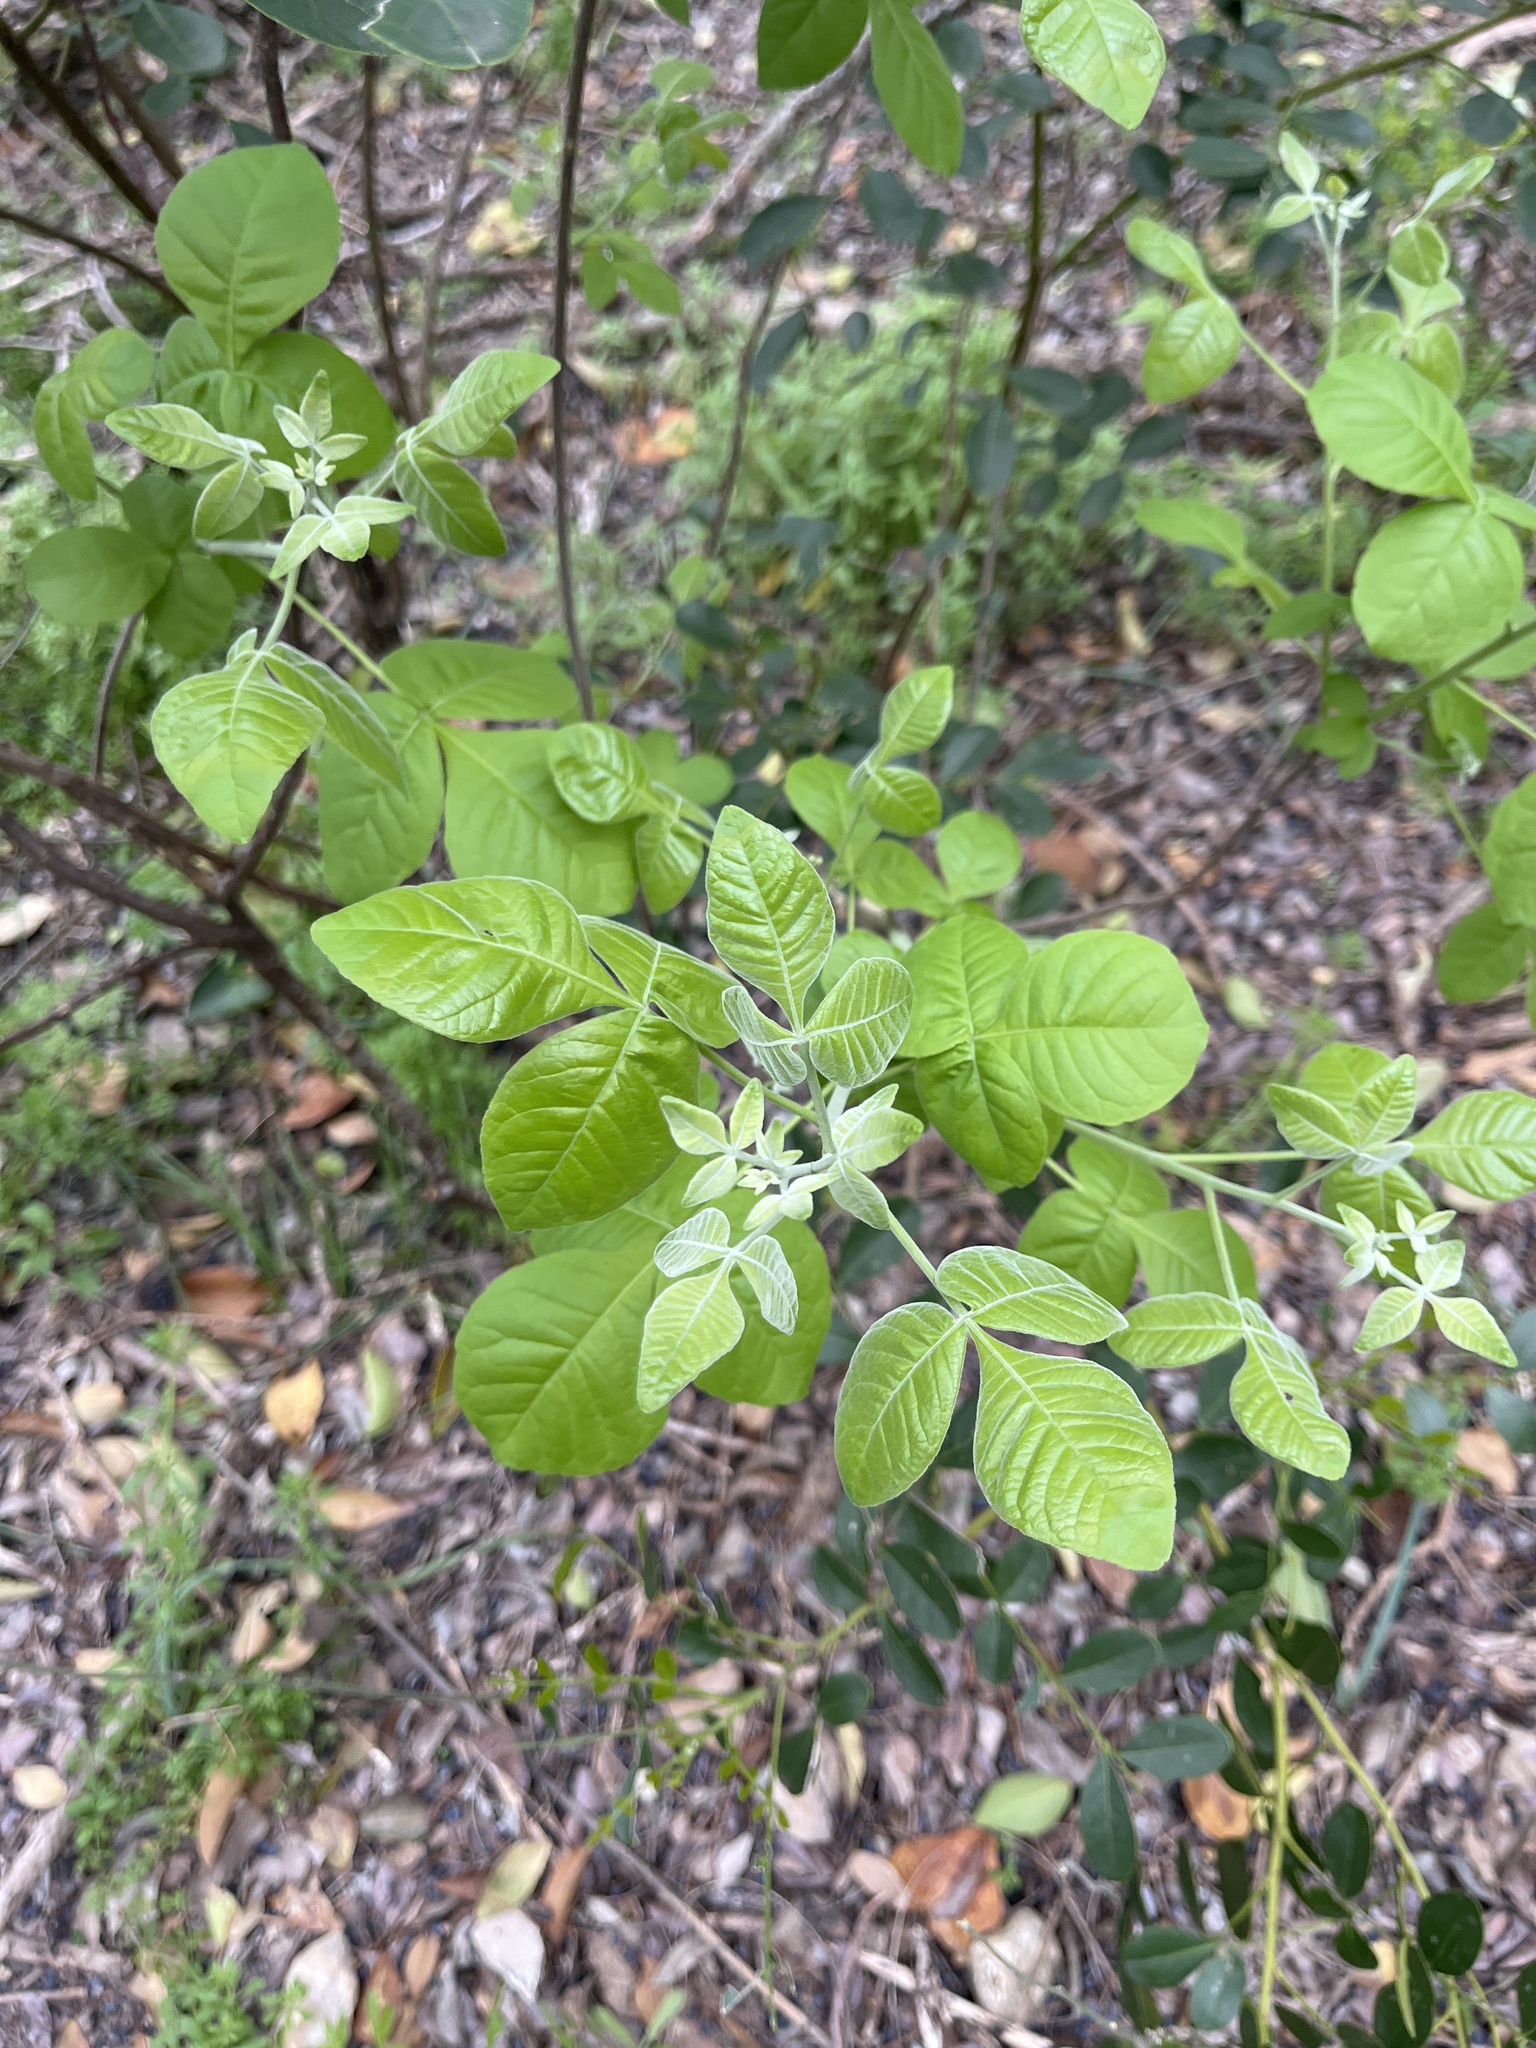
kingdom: Plantae
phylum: Tracheophyta
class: Magnoliopsida
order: Sapindales
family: Rutaceae
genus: Ptelea
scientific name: Ptelea trifoliata
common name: Common hop-tree
